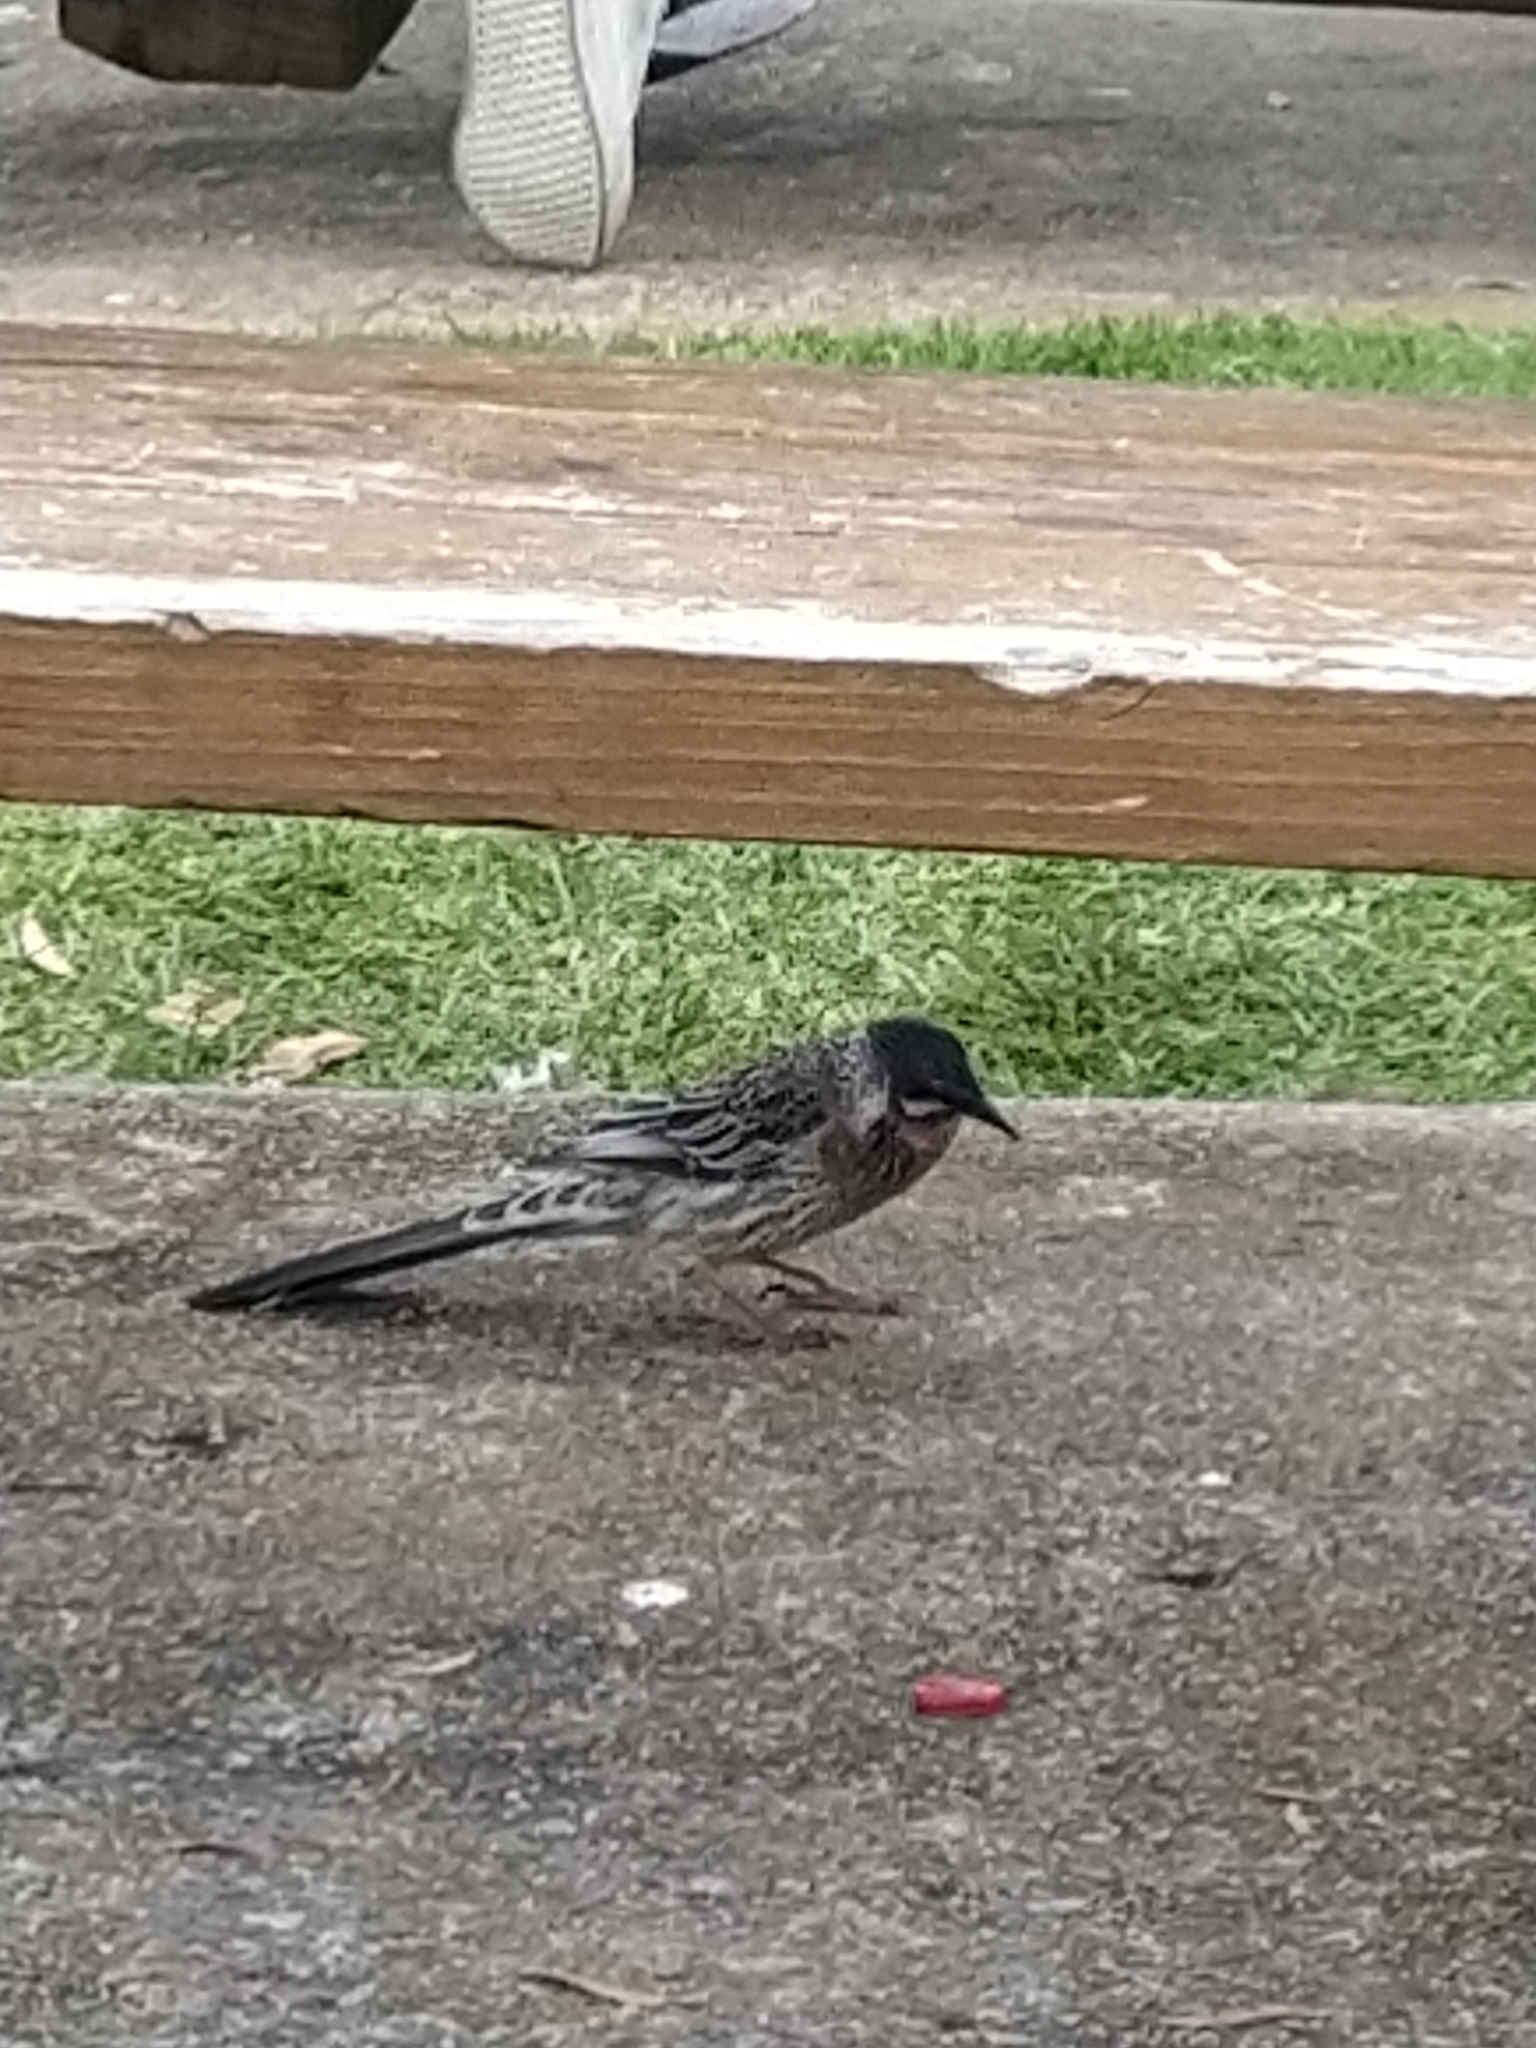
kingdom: Animalia
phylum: Chordata
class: Aves
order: Passeriformes
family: Meliphagidae
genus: Anthochaera
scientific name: Anthochaera carunculata
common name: Red wattlebird
